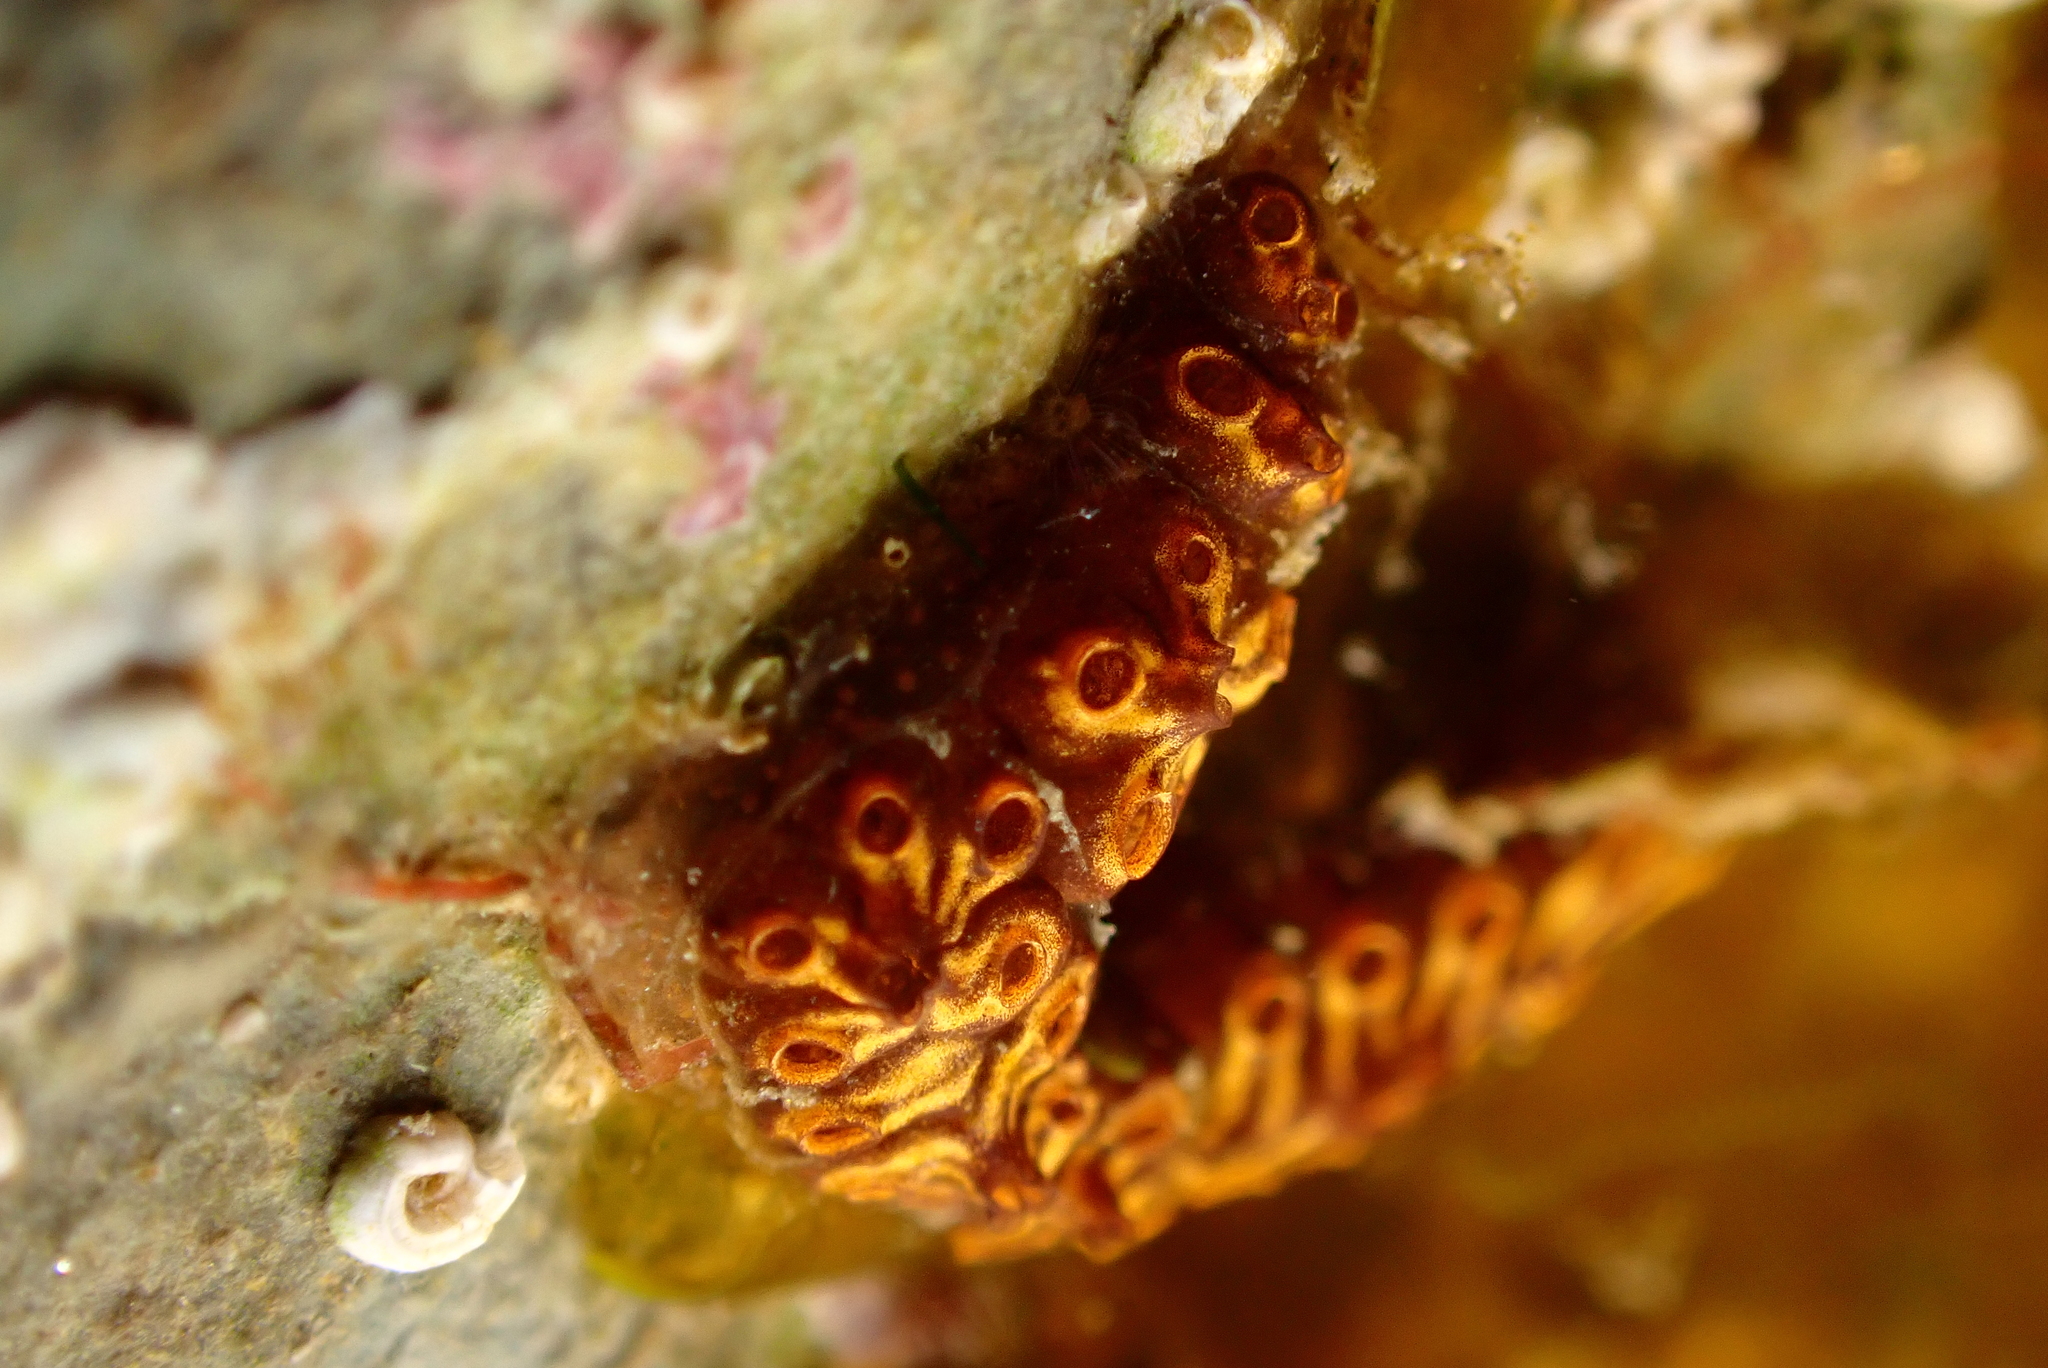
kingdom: Animalia
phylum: Chordata
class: Ascidiacea
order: Stolidobranchia
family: Styelidae
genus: Botrylloides
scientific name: Botrylloides niger
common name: Black synascidia
